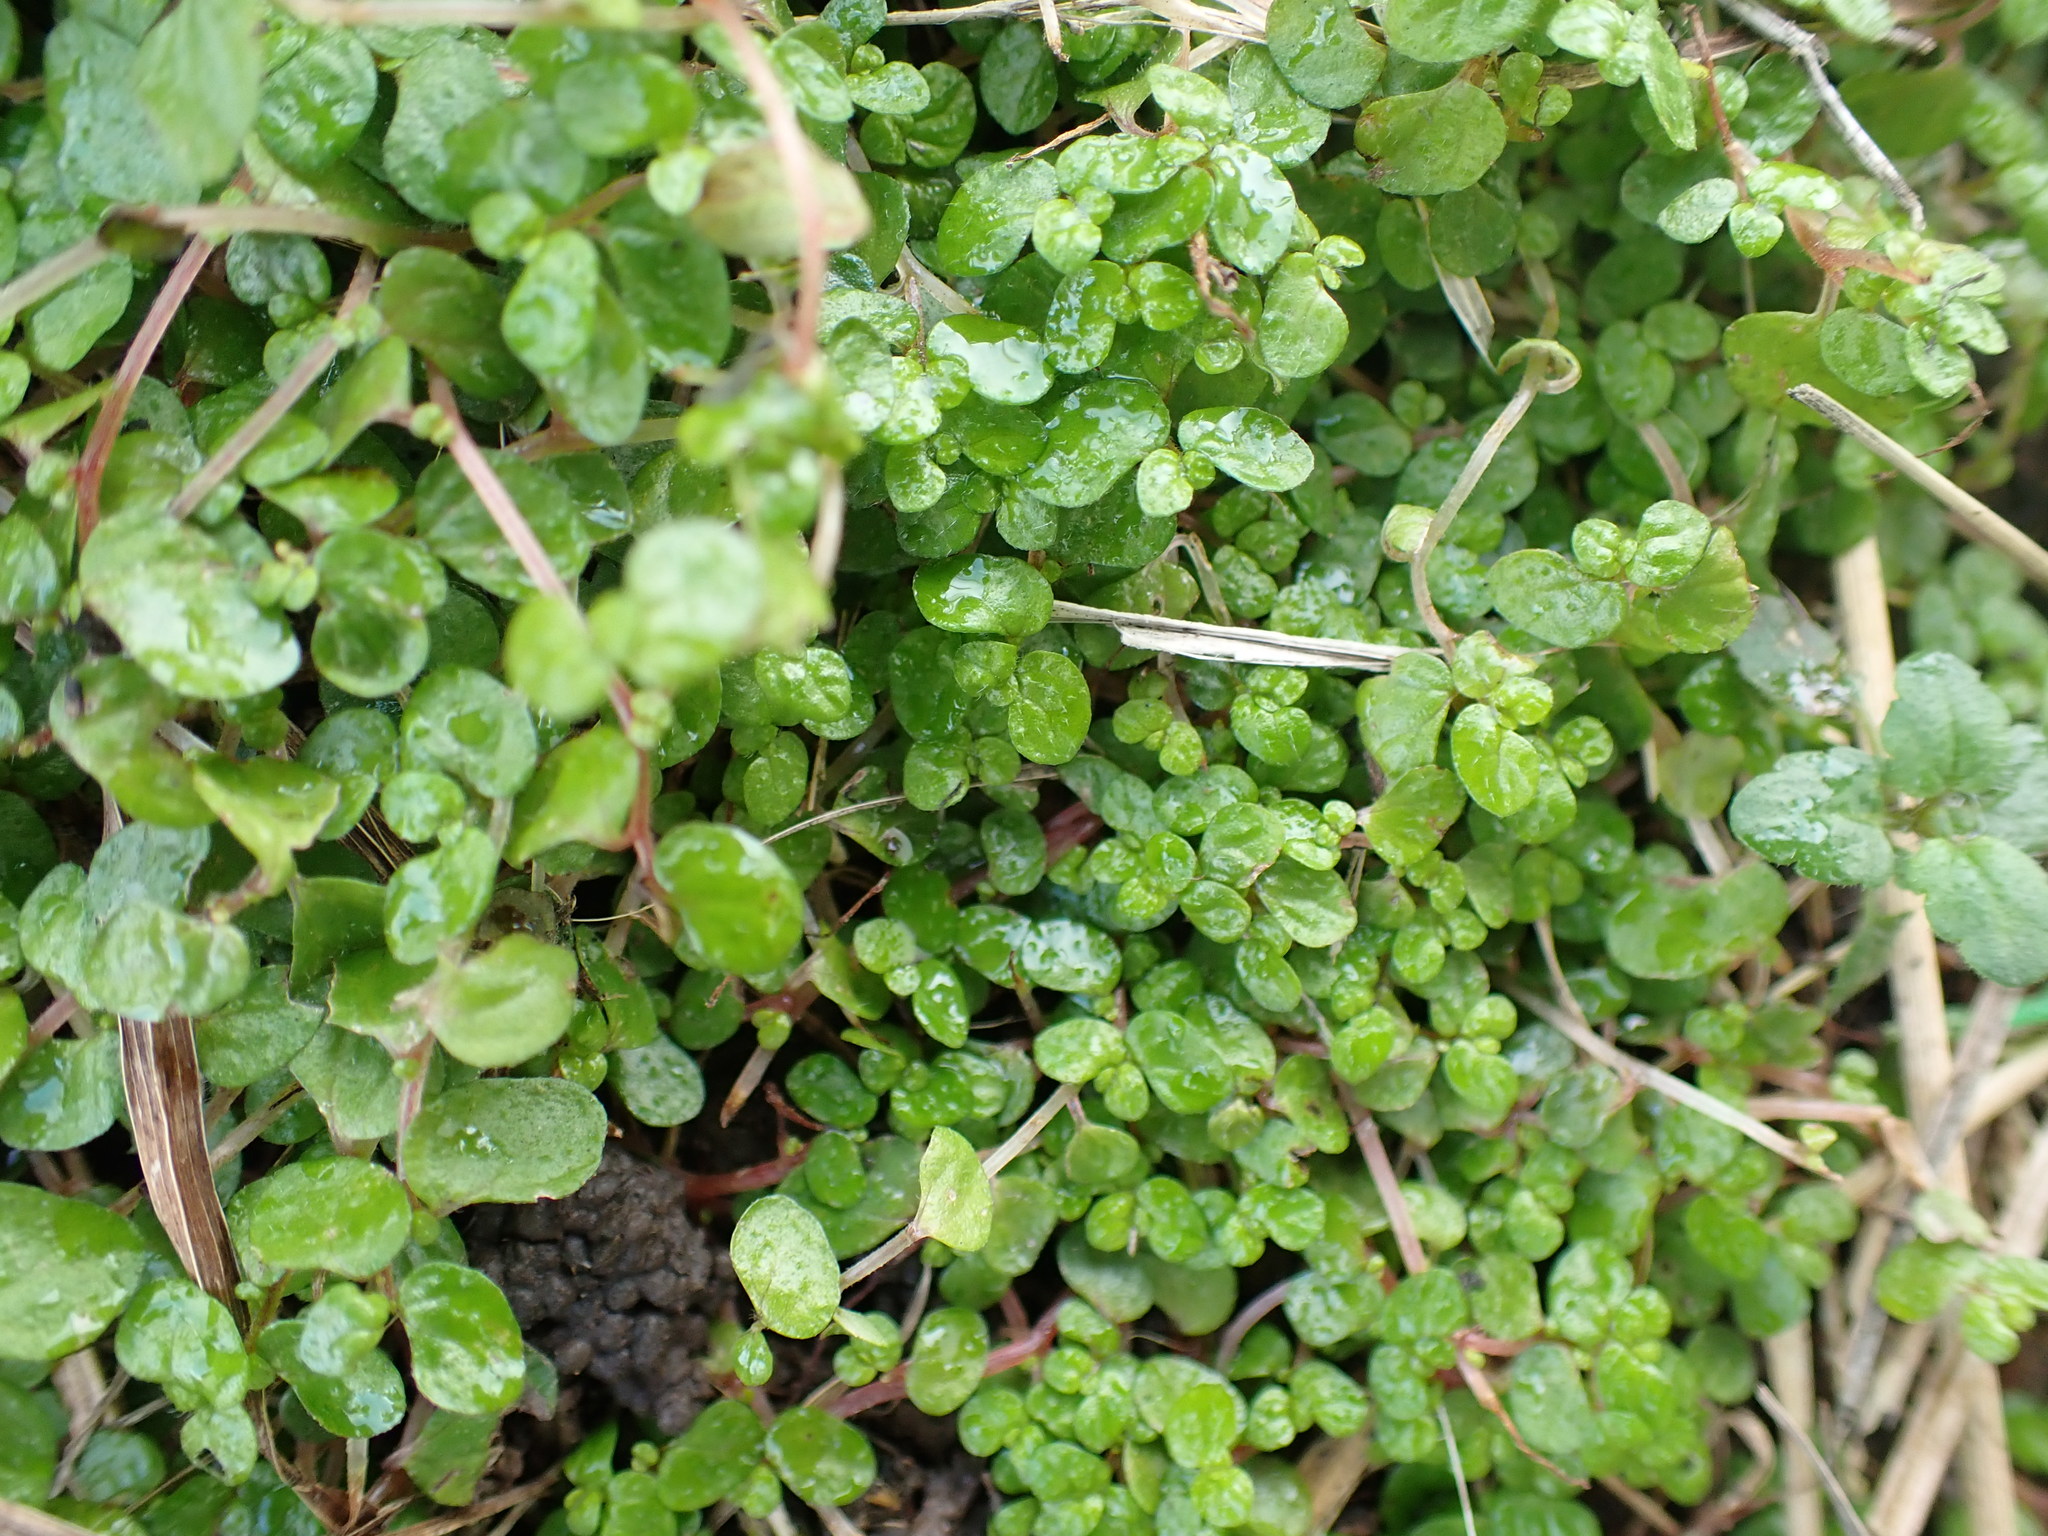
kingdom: Plantae
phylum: Tracheophyta
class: Magnoliopsida
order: Rosales
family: Urticaceae
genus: Soleirolia
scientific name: Soleirolia soleirolii
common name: Mind-your-own-business
